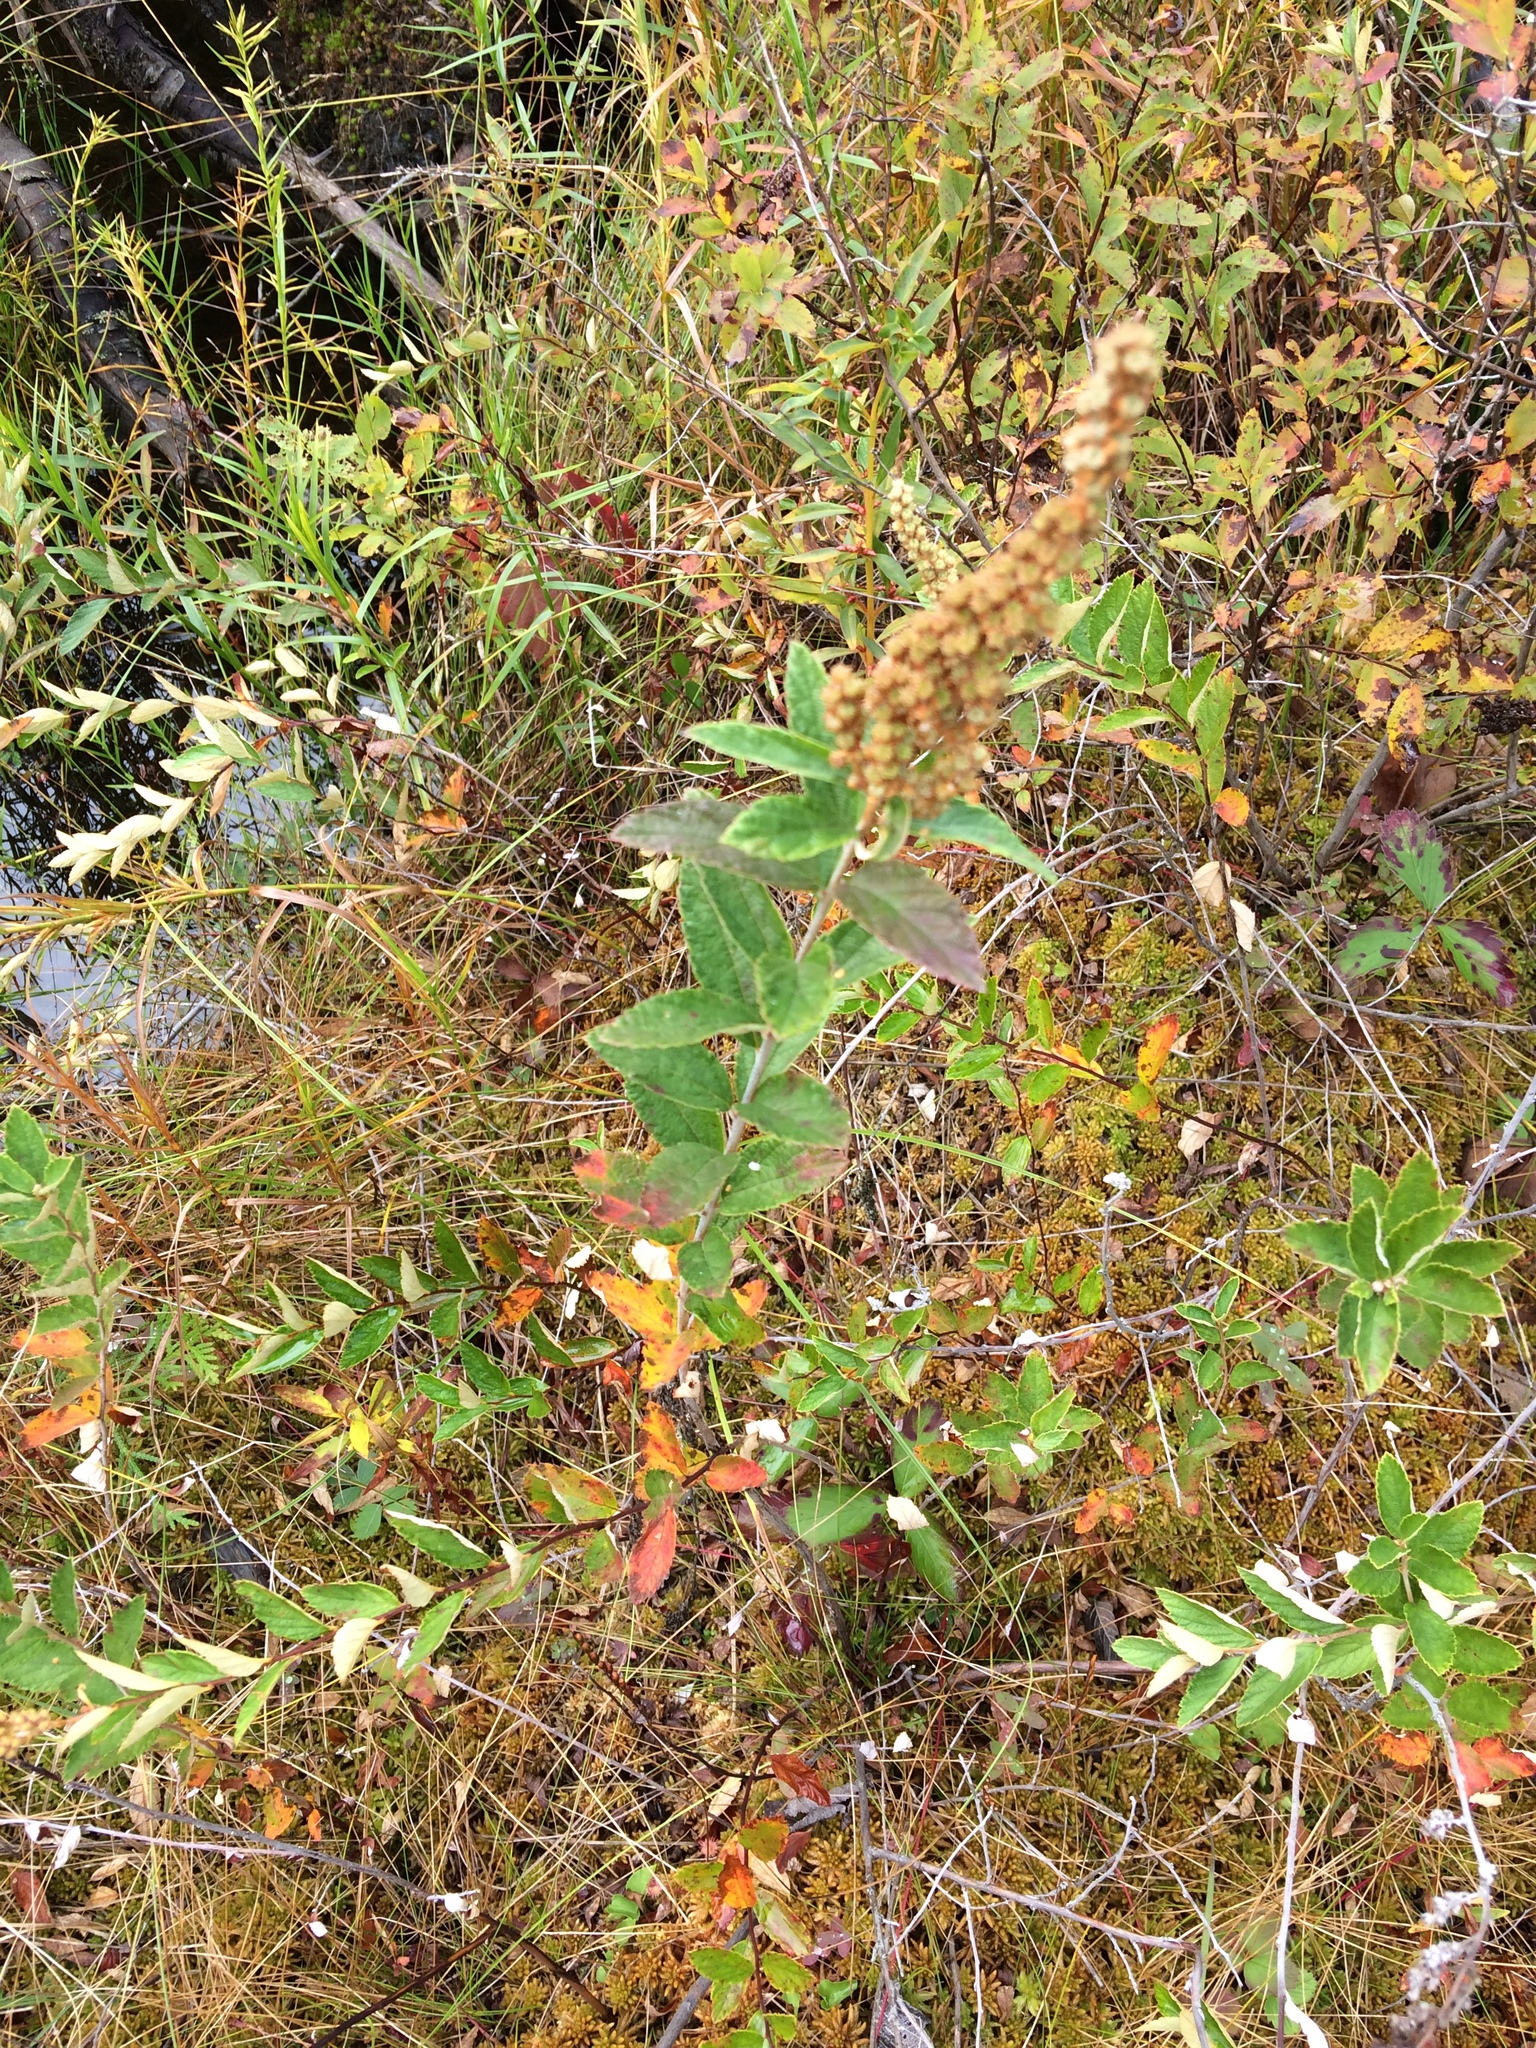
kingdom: Plantae
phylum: Tracheophyta
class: Magnoliopsida
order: Rosales
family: Rosaceae
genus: Spiraea
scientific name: Spiraea tomentosa
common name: Hardhack
